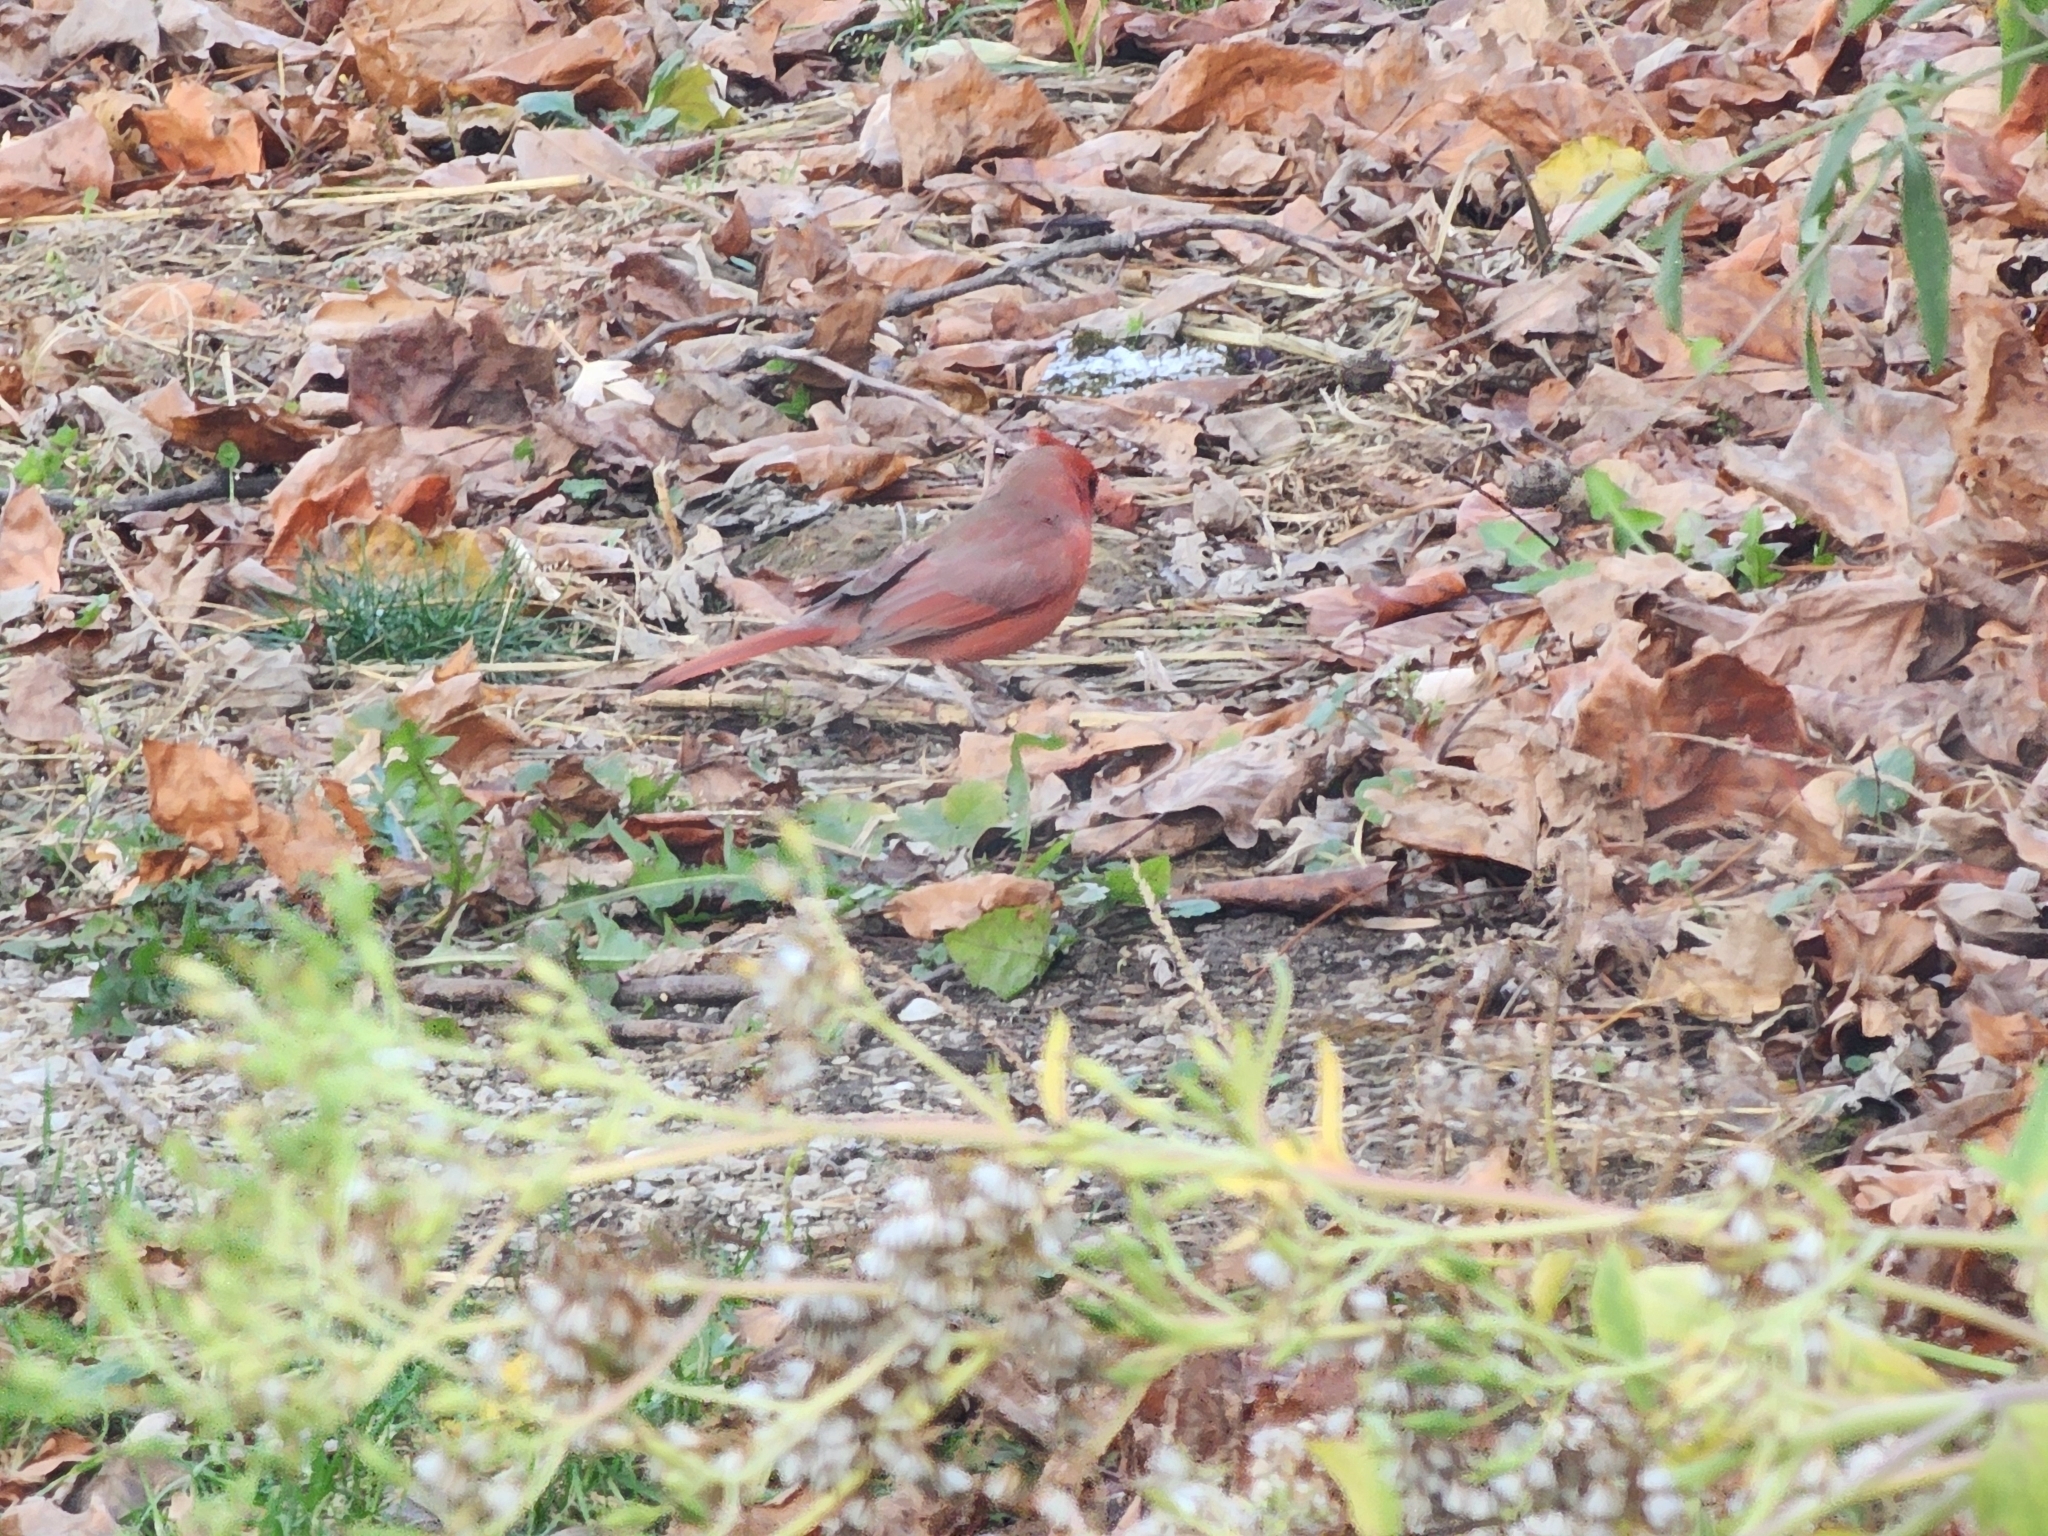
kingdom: Animalia
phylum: Chordata
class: Aves
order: Passeriformes
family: Cardinalidae
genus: Cardinalis
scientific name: Cardinalis cardinalis
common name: Northern cardinal
